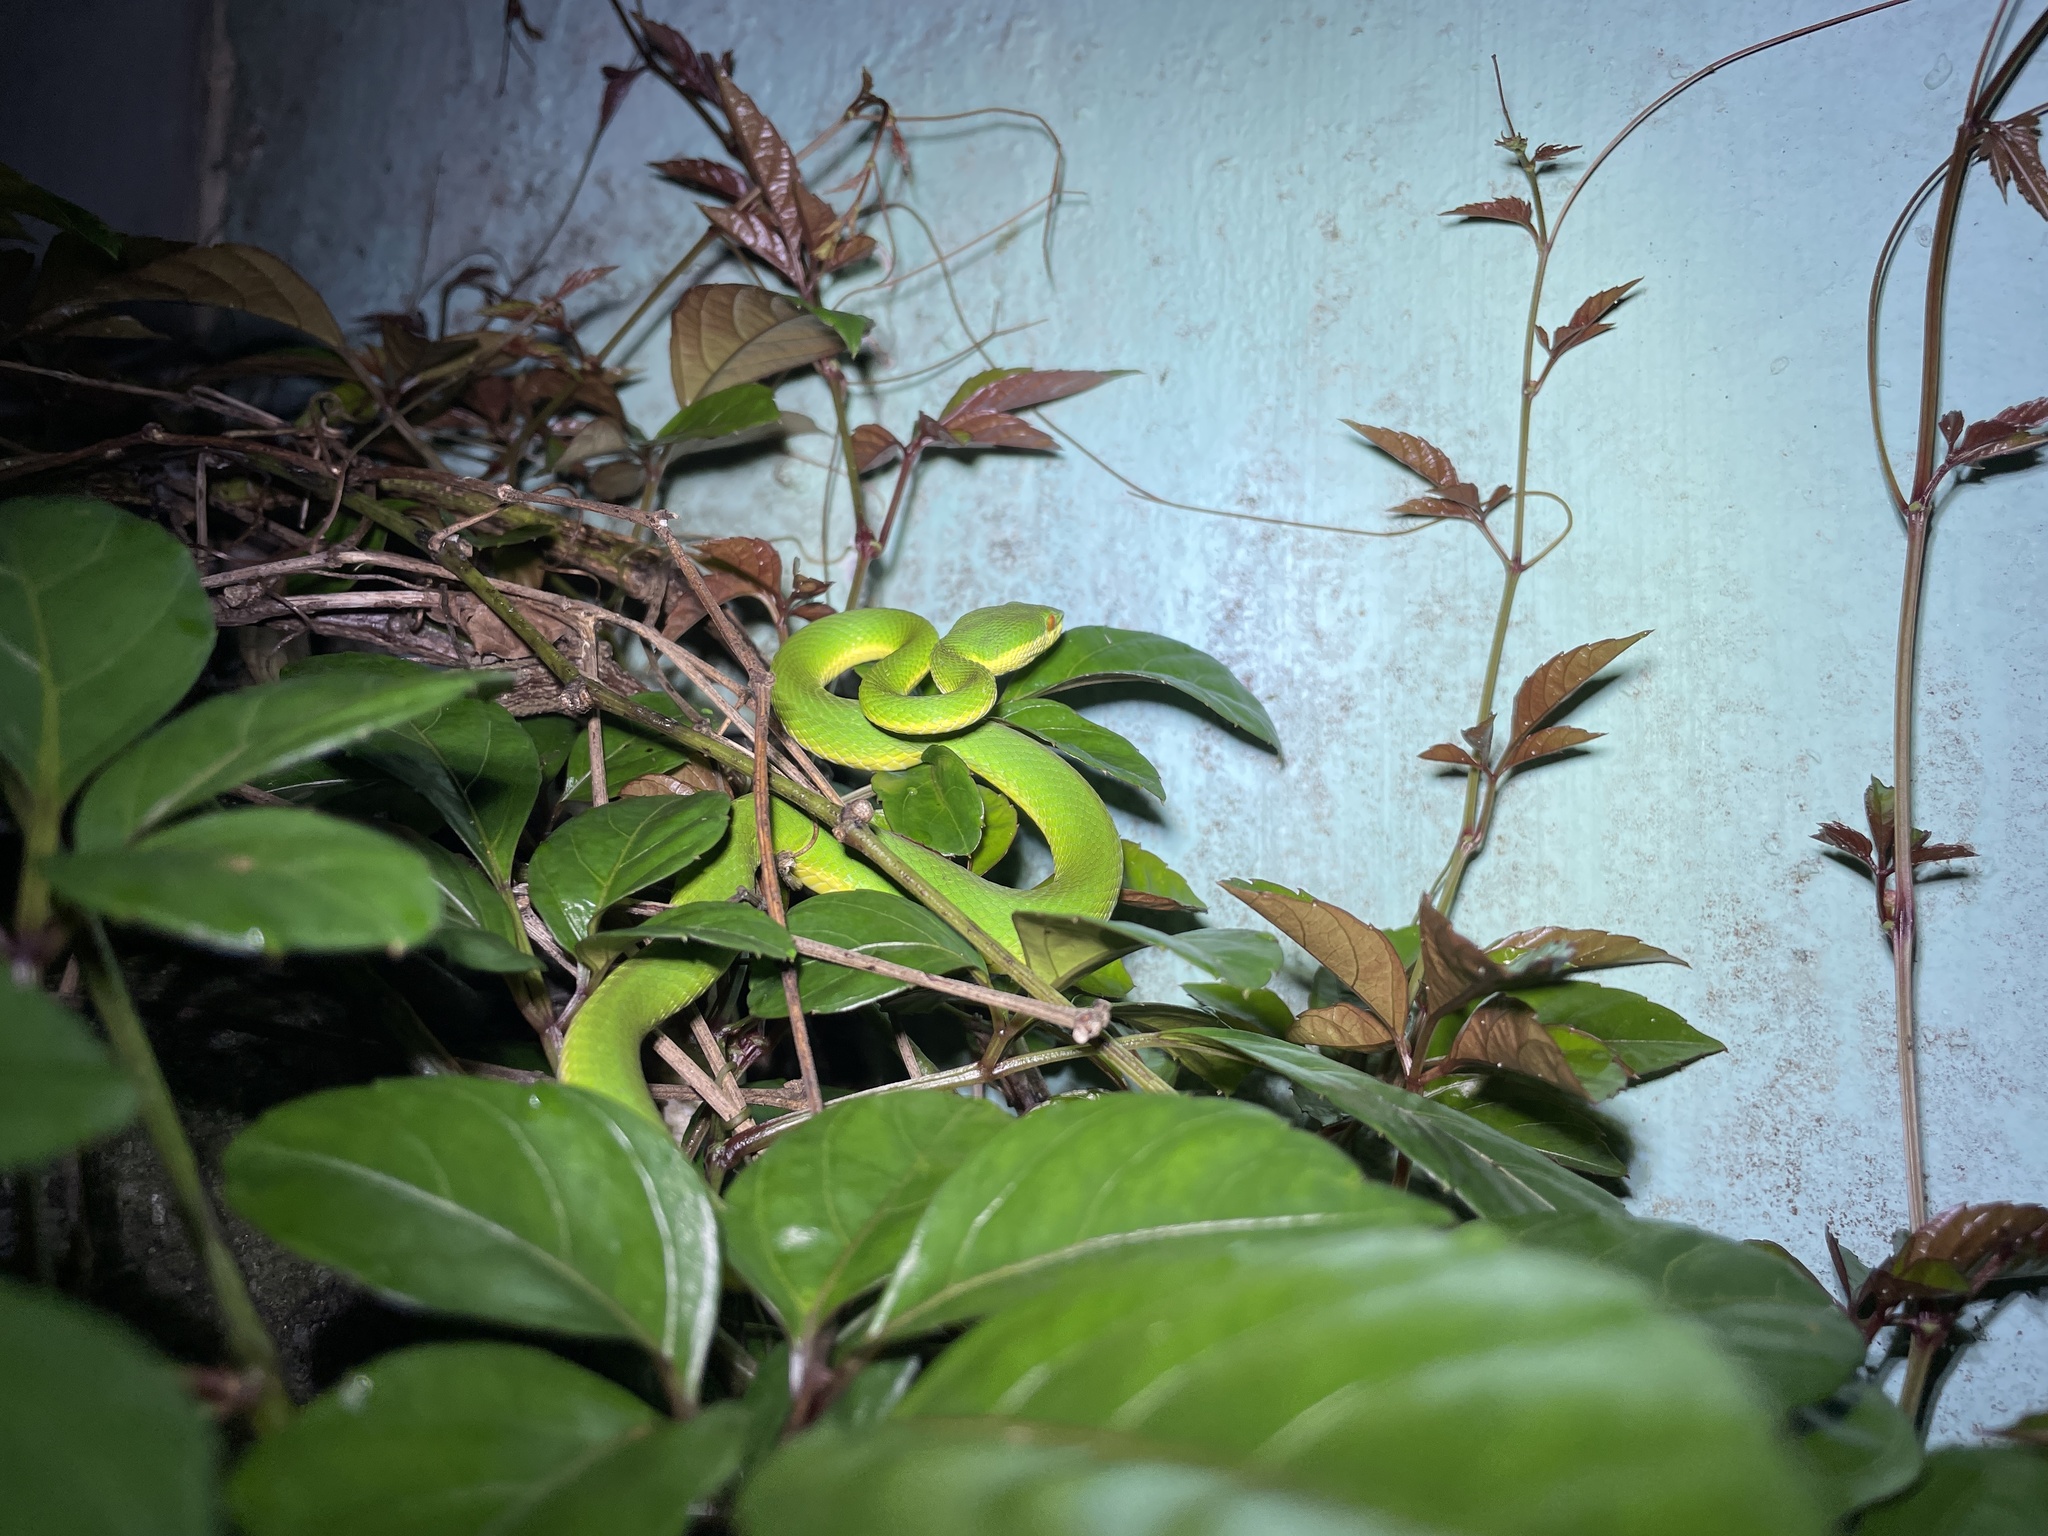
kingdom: Animalia
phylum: Chordata
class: Squamata
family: Viperidae
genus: Trimeresurus
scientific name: Trimeresurus albolabris
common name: White-lipped pitviper
